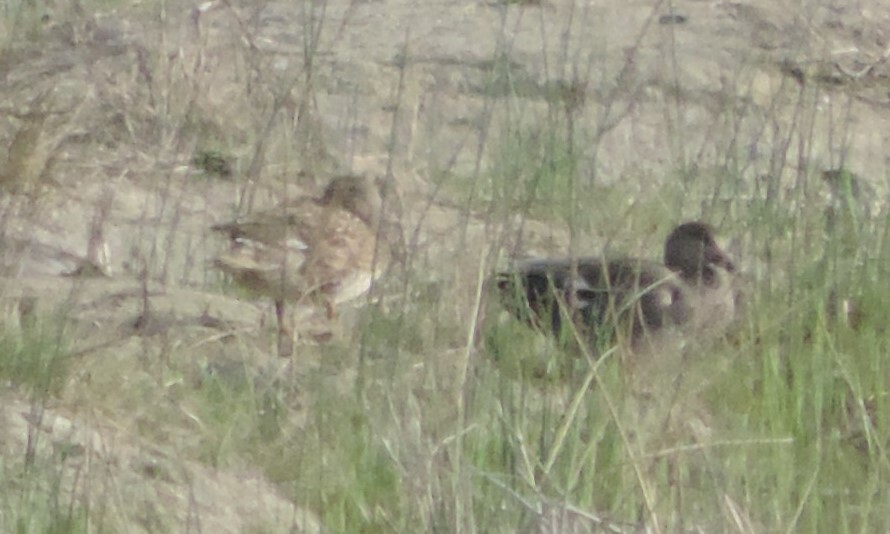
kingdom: Animalia
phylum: Chordata
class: Aves
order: Anseriformes
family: Anatidae
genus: Mareca
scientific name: Mareca strepera
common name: Gadwall
